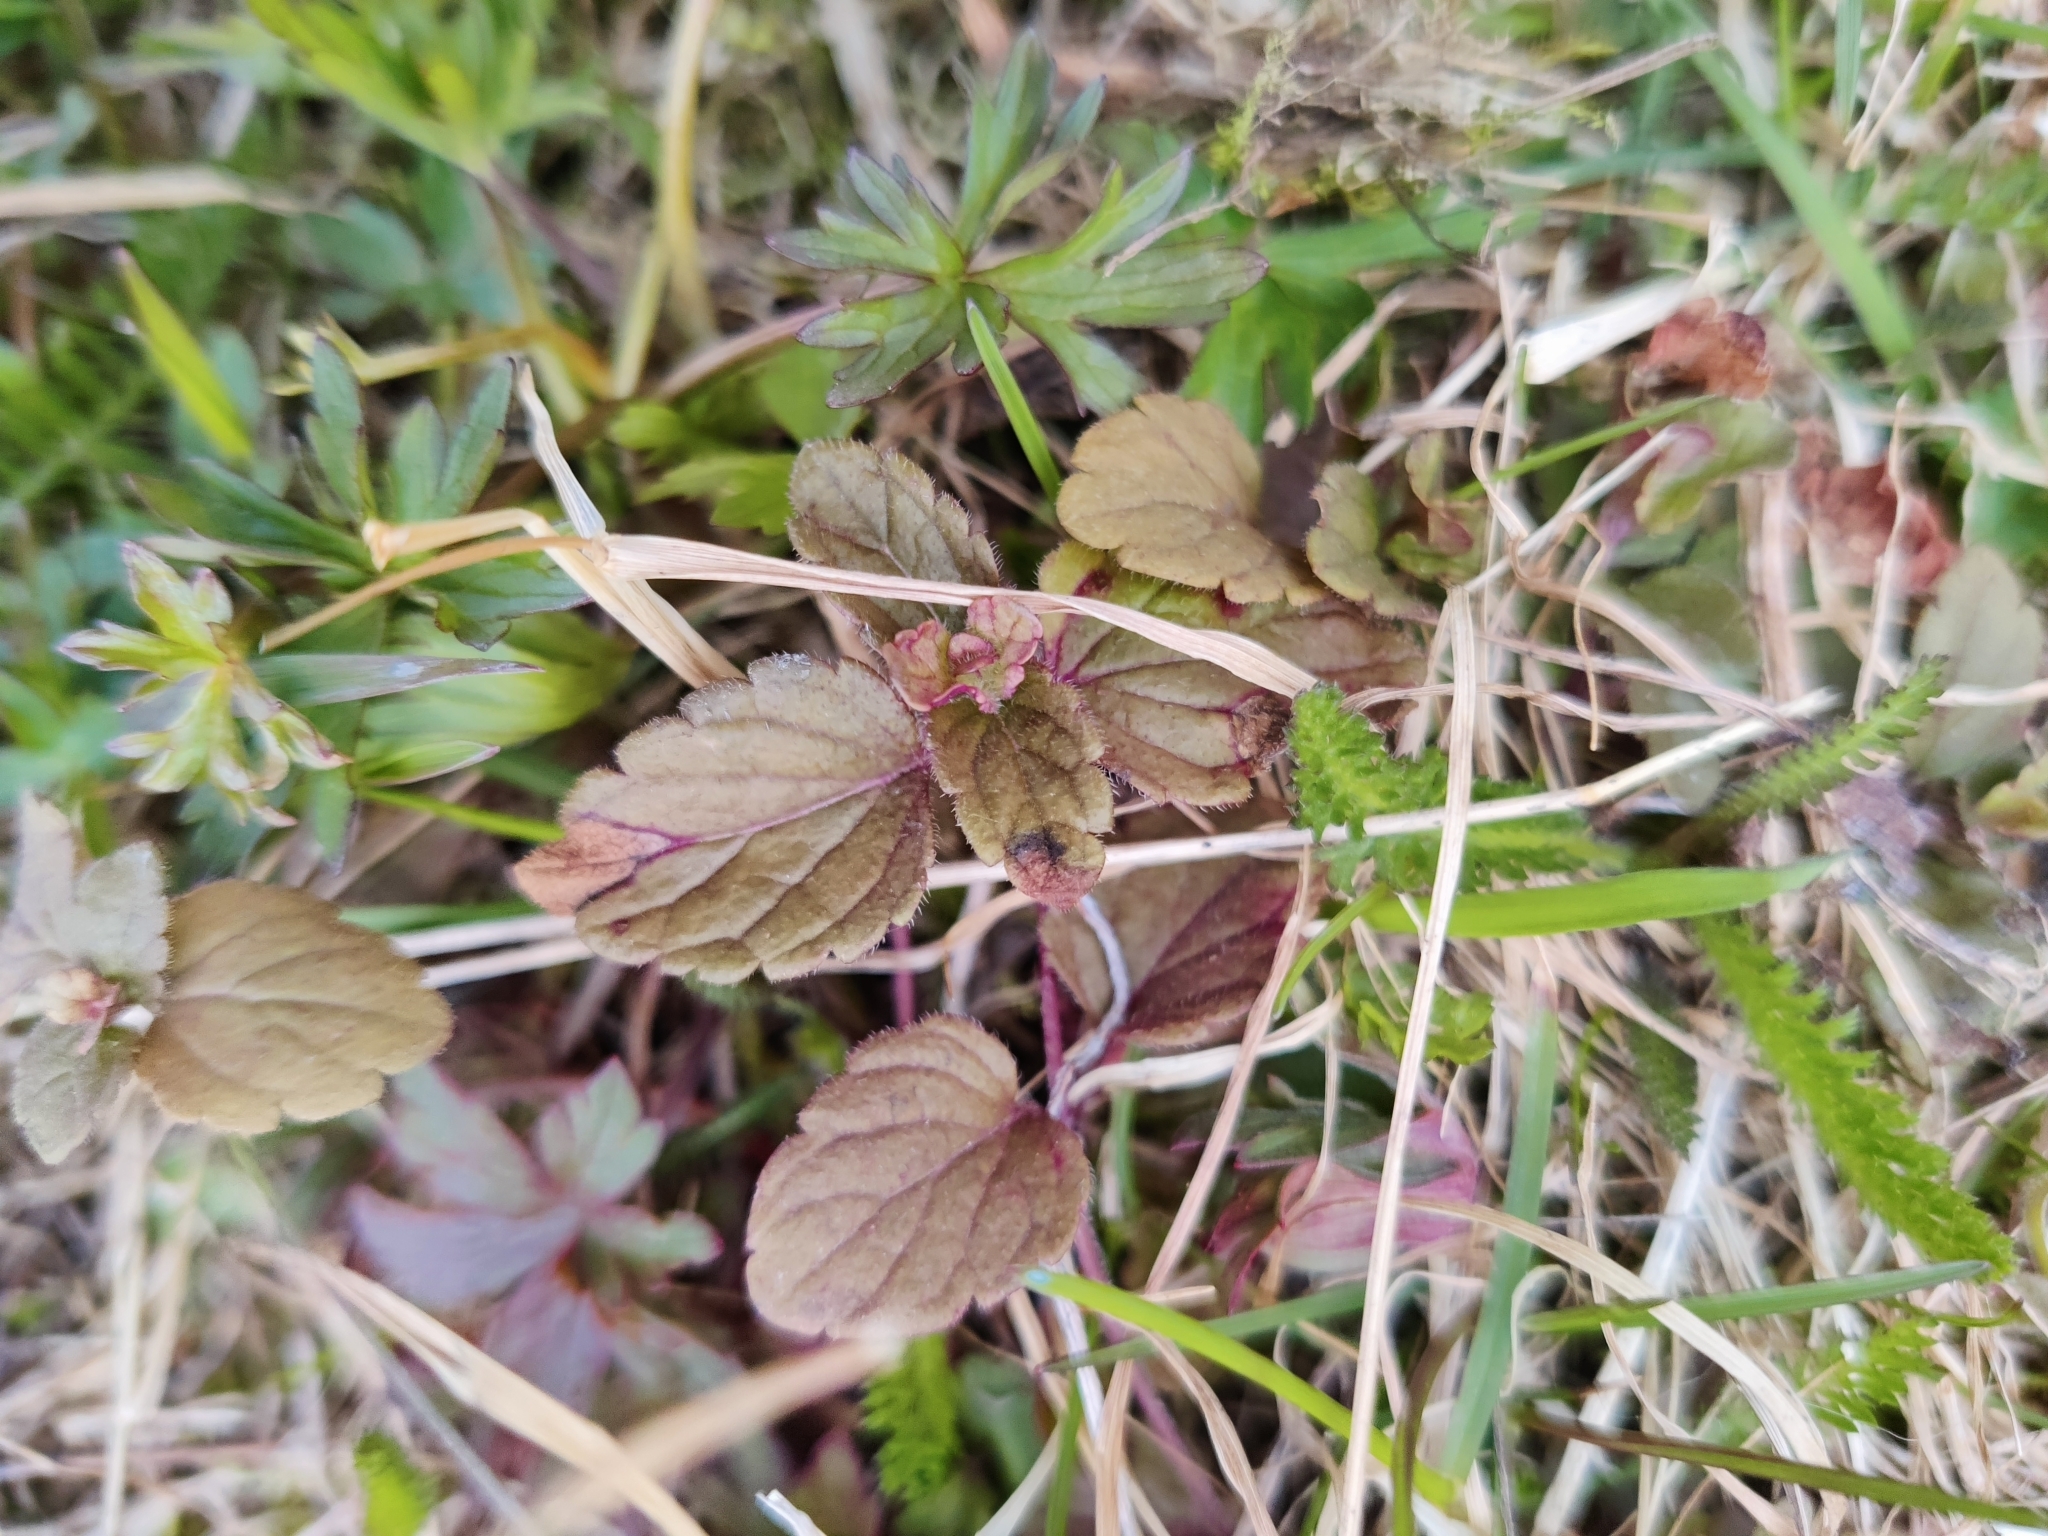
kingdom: Plantae
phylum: Tracheophyta
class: Magnoliopsida
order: Lamiales
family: Plantaginaceae
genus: Veronica
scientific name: Veronica chamaedrys
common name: Germander speedwell
